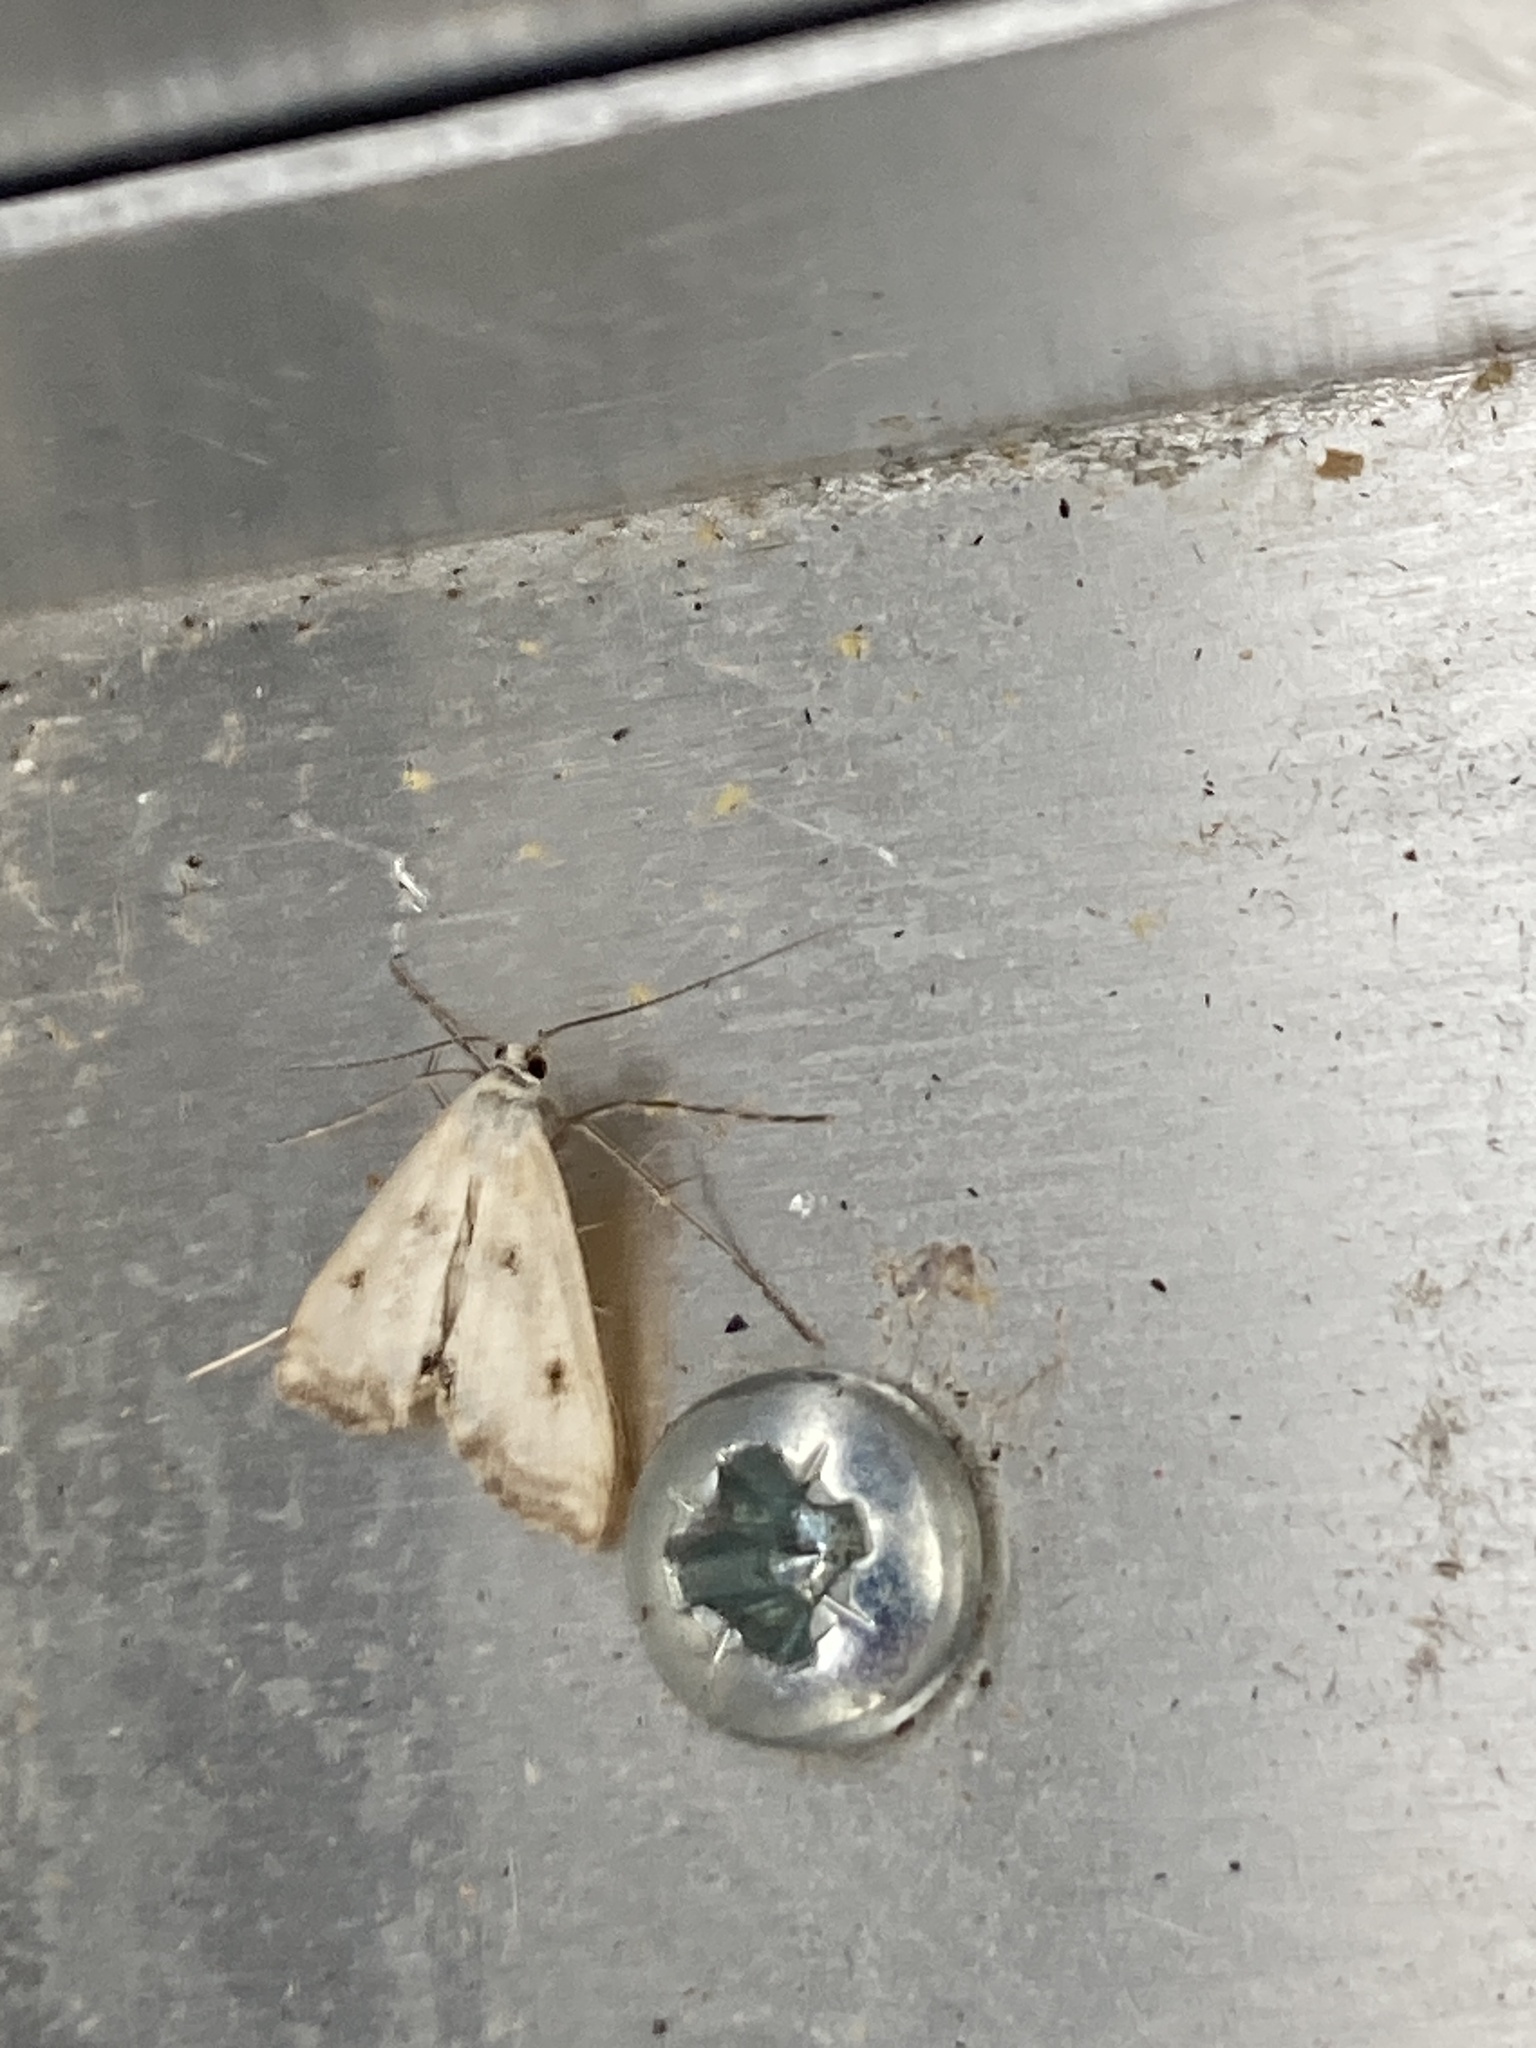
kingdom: Animalia
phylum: Arthropoda
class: Insecta
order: Lepidoptera
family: Crambidae
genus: Cataclysta
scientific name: Cataclysta lemnata
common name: Small china-mark
